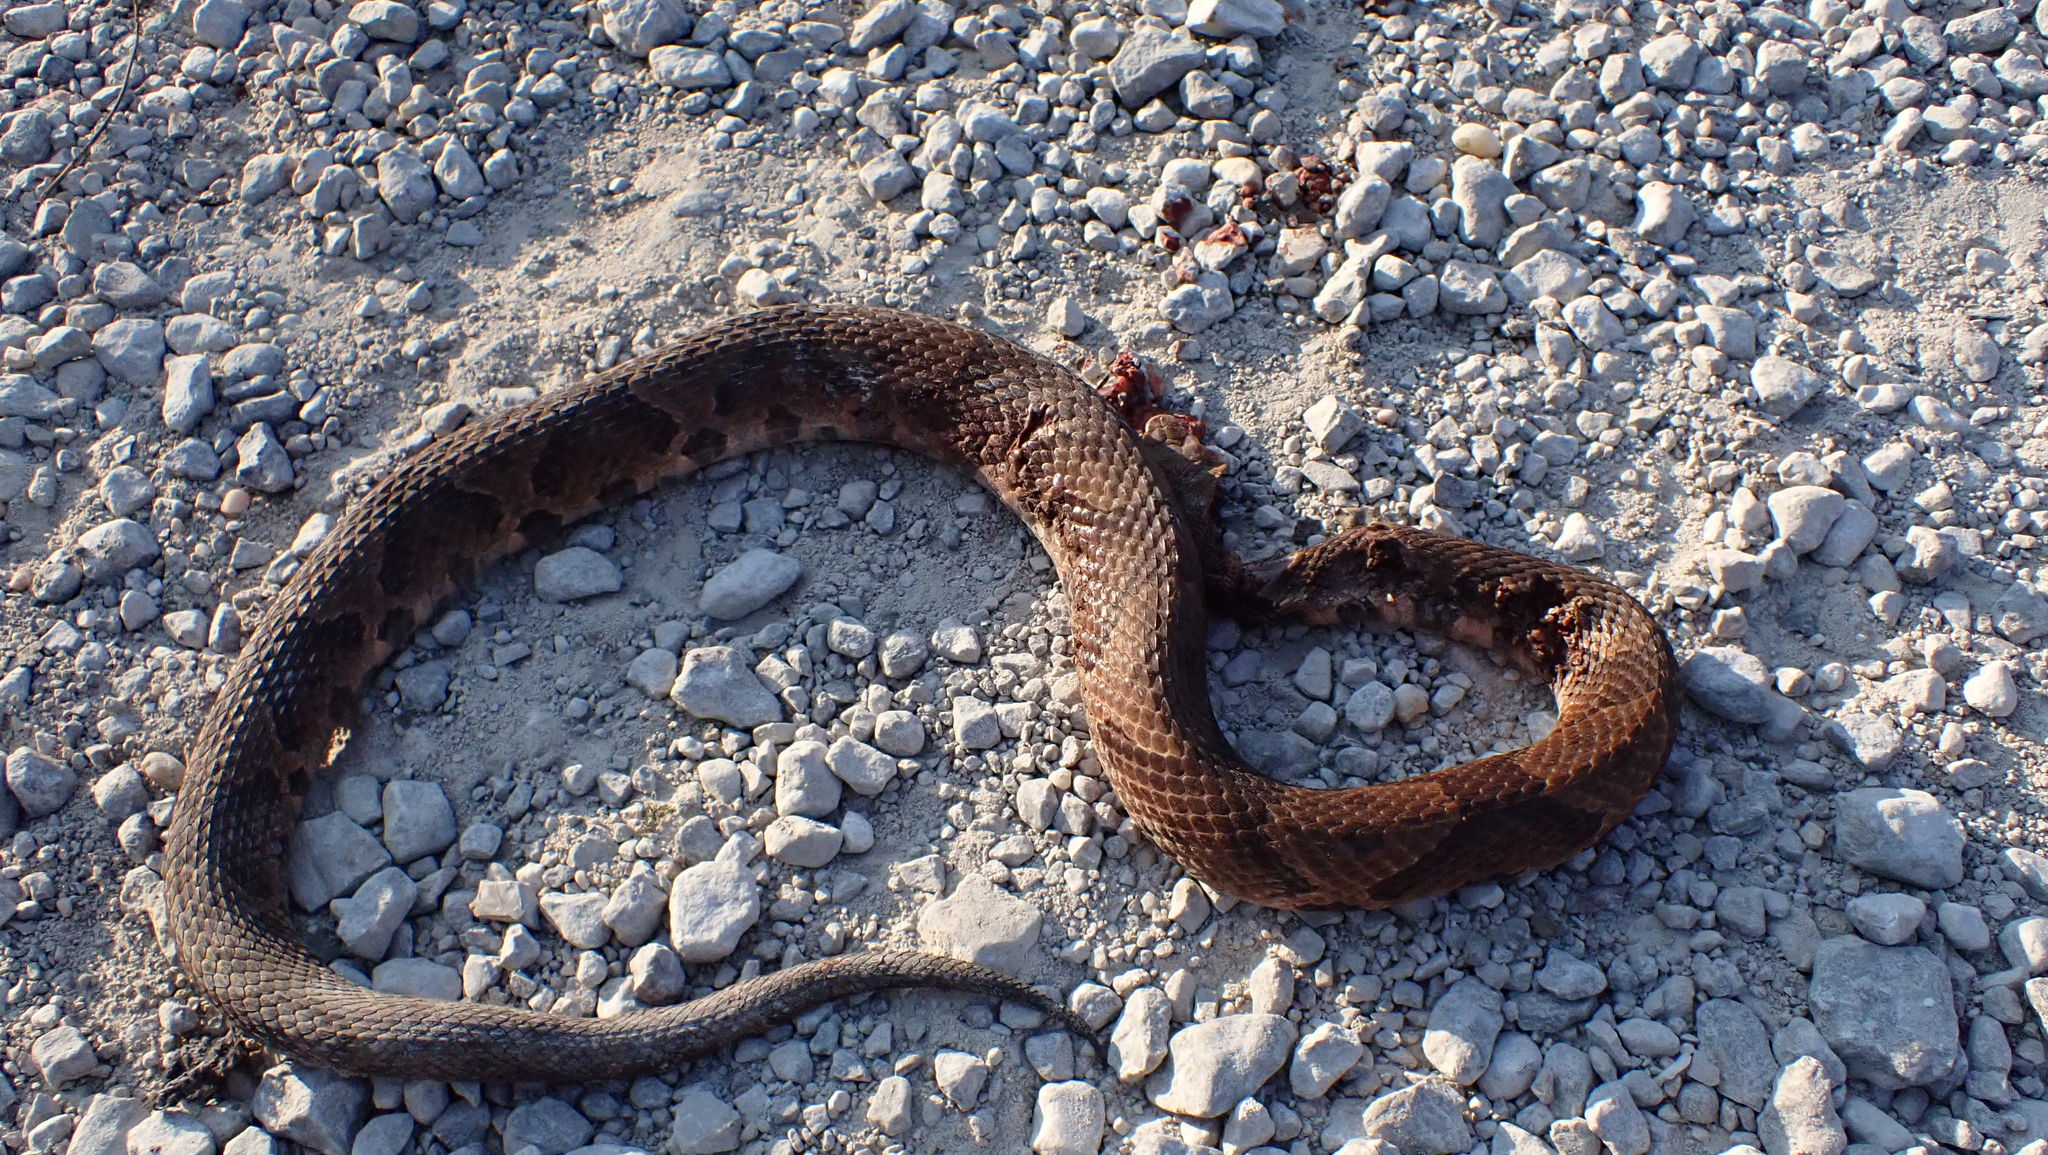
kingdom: Animalia
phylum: Chordata
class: Squamata
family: Viperidae
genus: Agkistrodon
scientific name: Agkistrodon contortrix
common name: Northern copperhead
